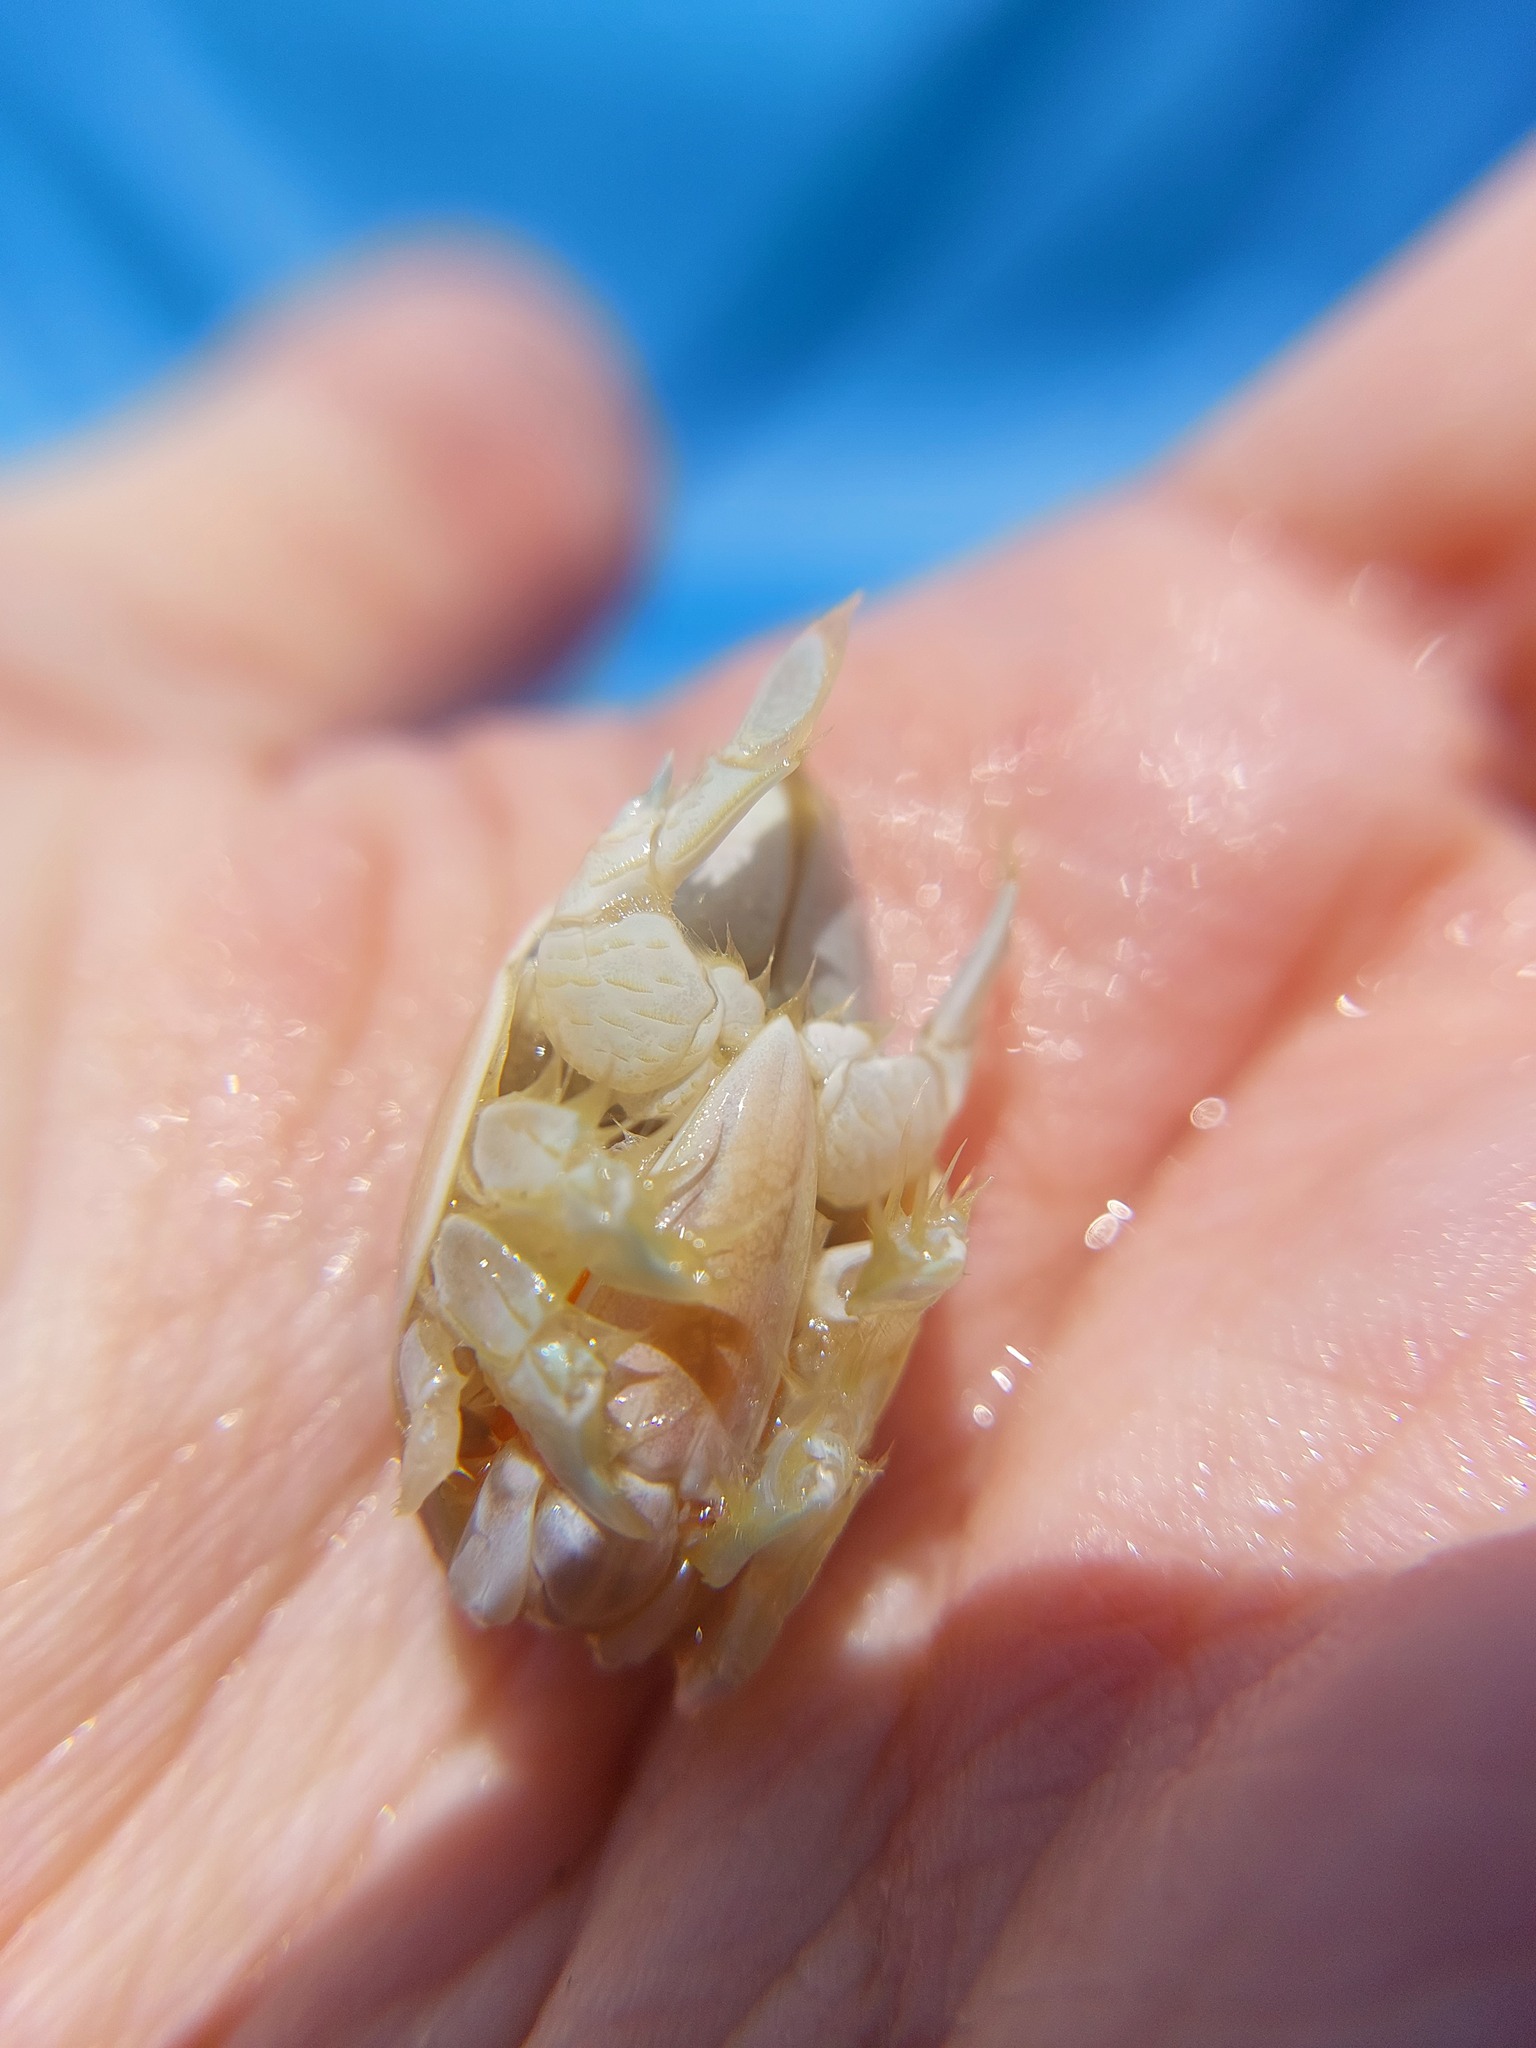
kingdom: Animalia
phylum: Arthropoda
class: Malacostraca
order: Decapoda
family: Hippidae
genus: Emerita
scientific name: Emerita talpoida
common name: Atlantic sand crab
